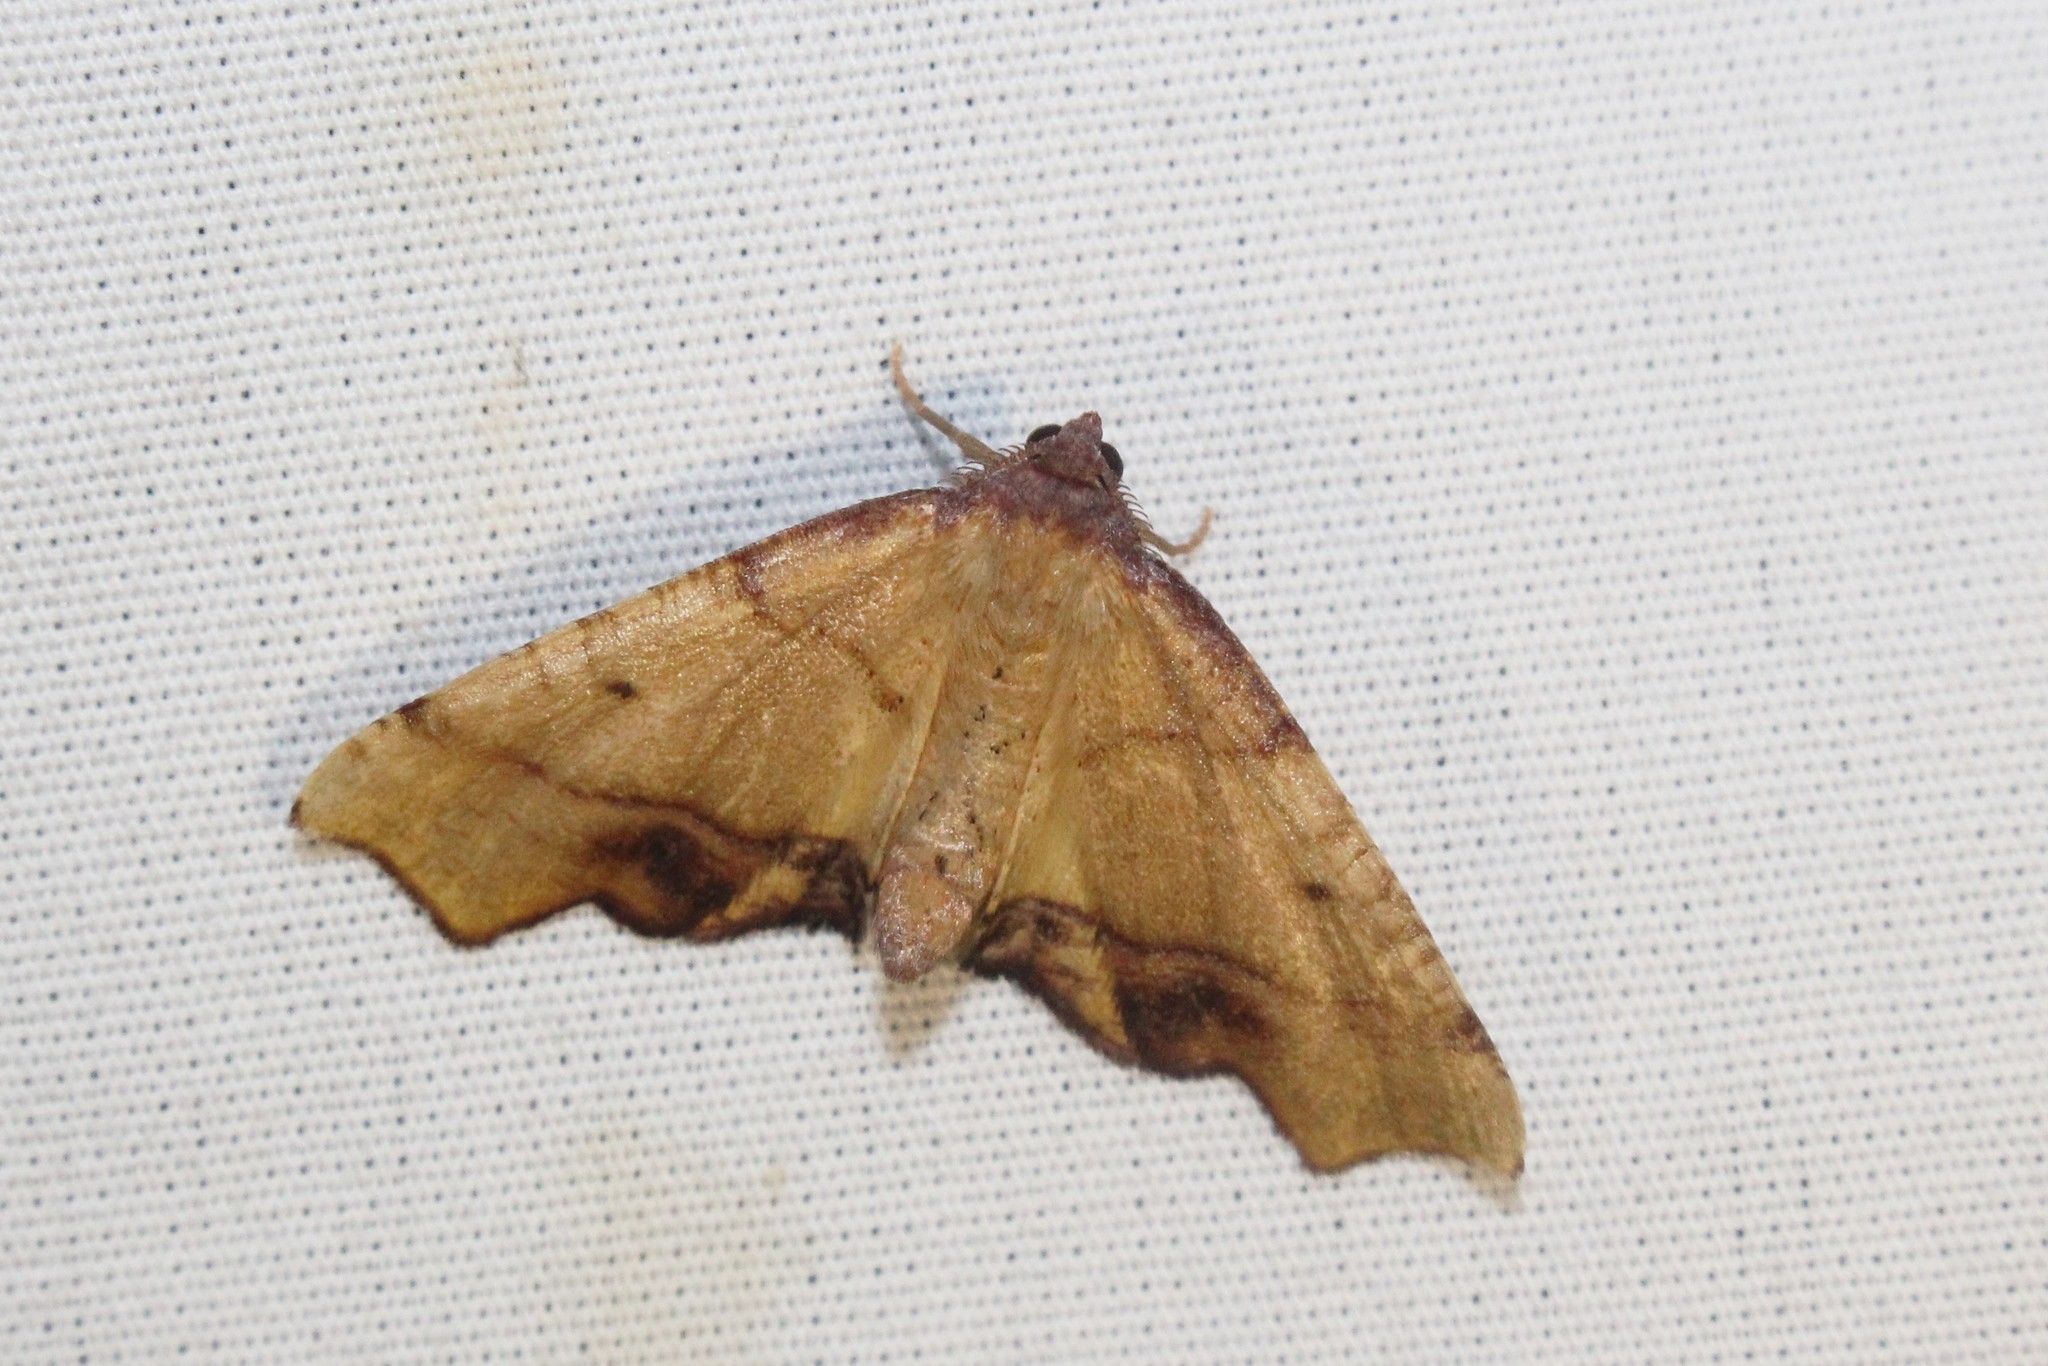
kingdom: Animalia
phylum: Arthropoda
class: Insecta
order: Lepidoptera
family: Geometridae
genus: Plagodis
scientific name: Plagodis phlogosaria
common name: Straight-lined plagodis
